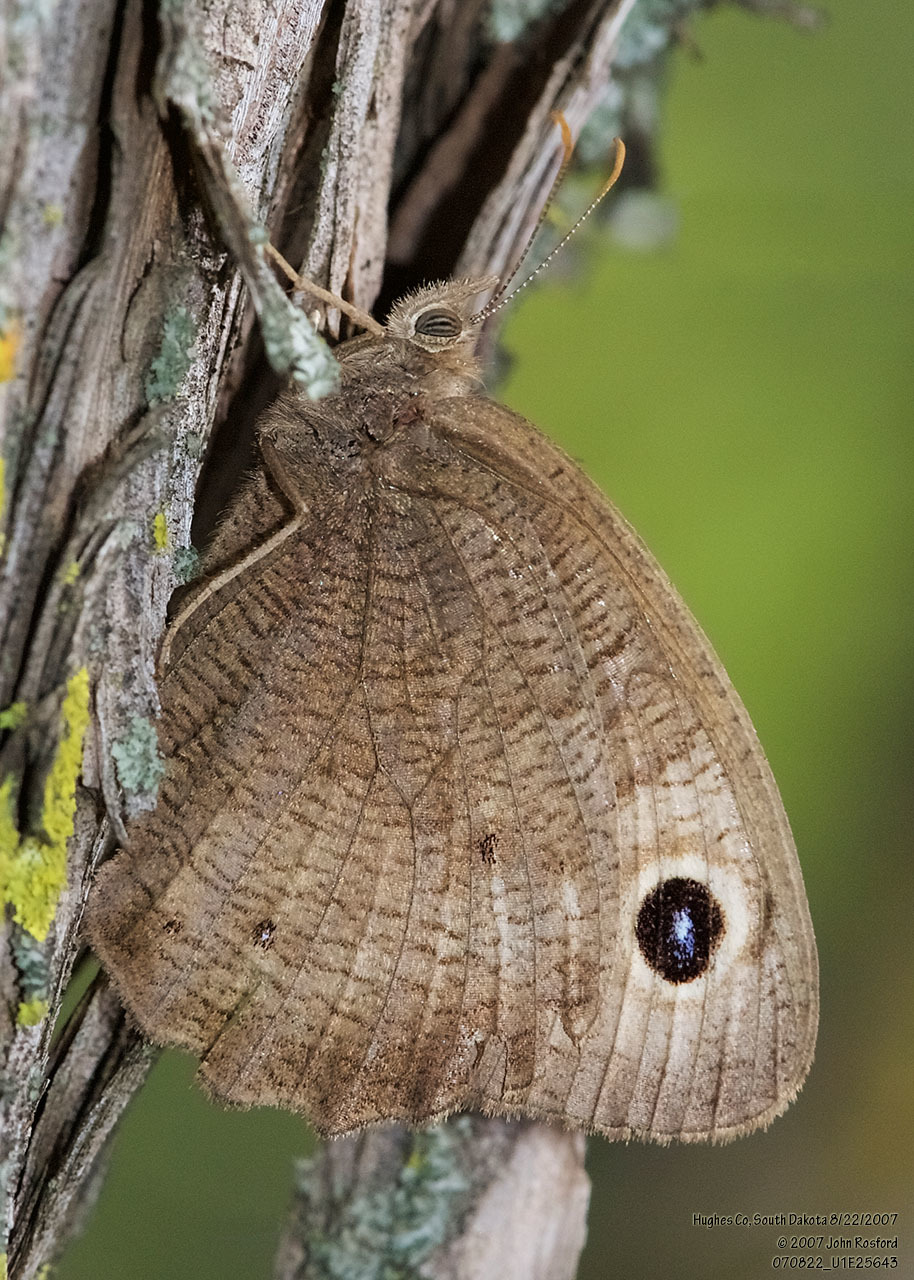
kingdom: Animalia
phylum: Arthropoda
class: Insecta
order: Lepidoptera
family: Nymphalidae
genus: Cercyonis
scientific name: Cercyonis pegala
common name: Common wood-nymph
